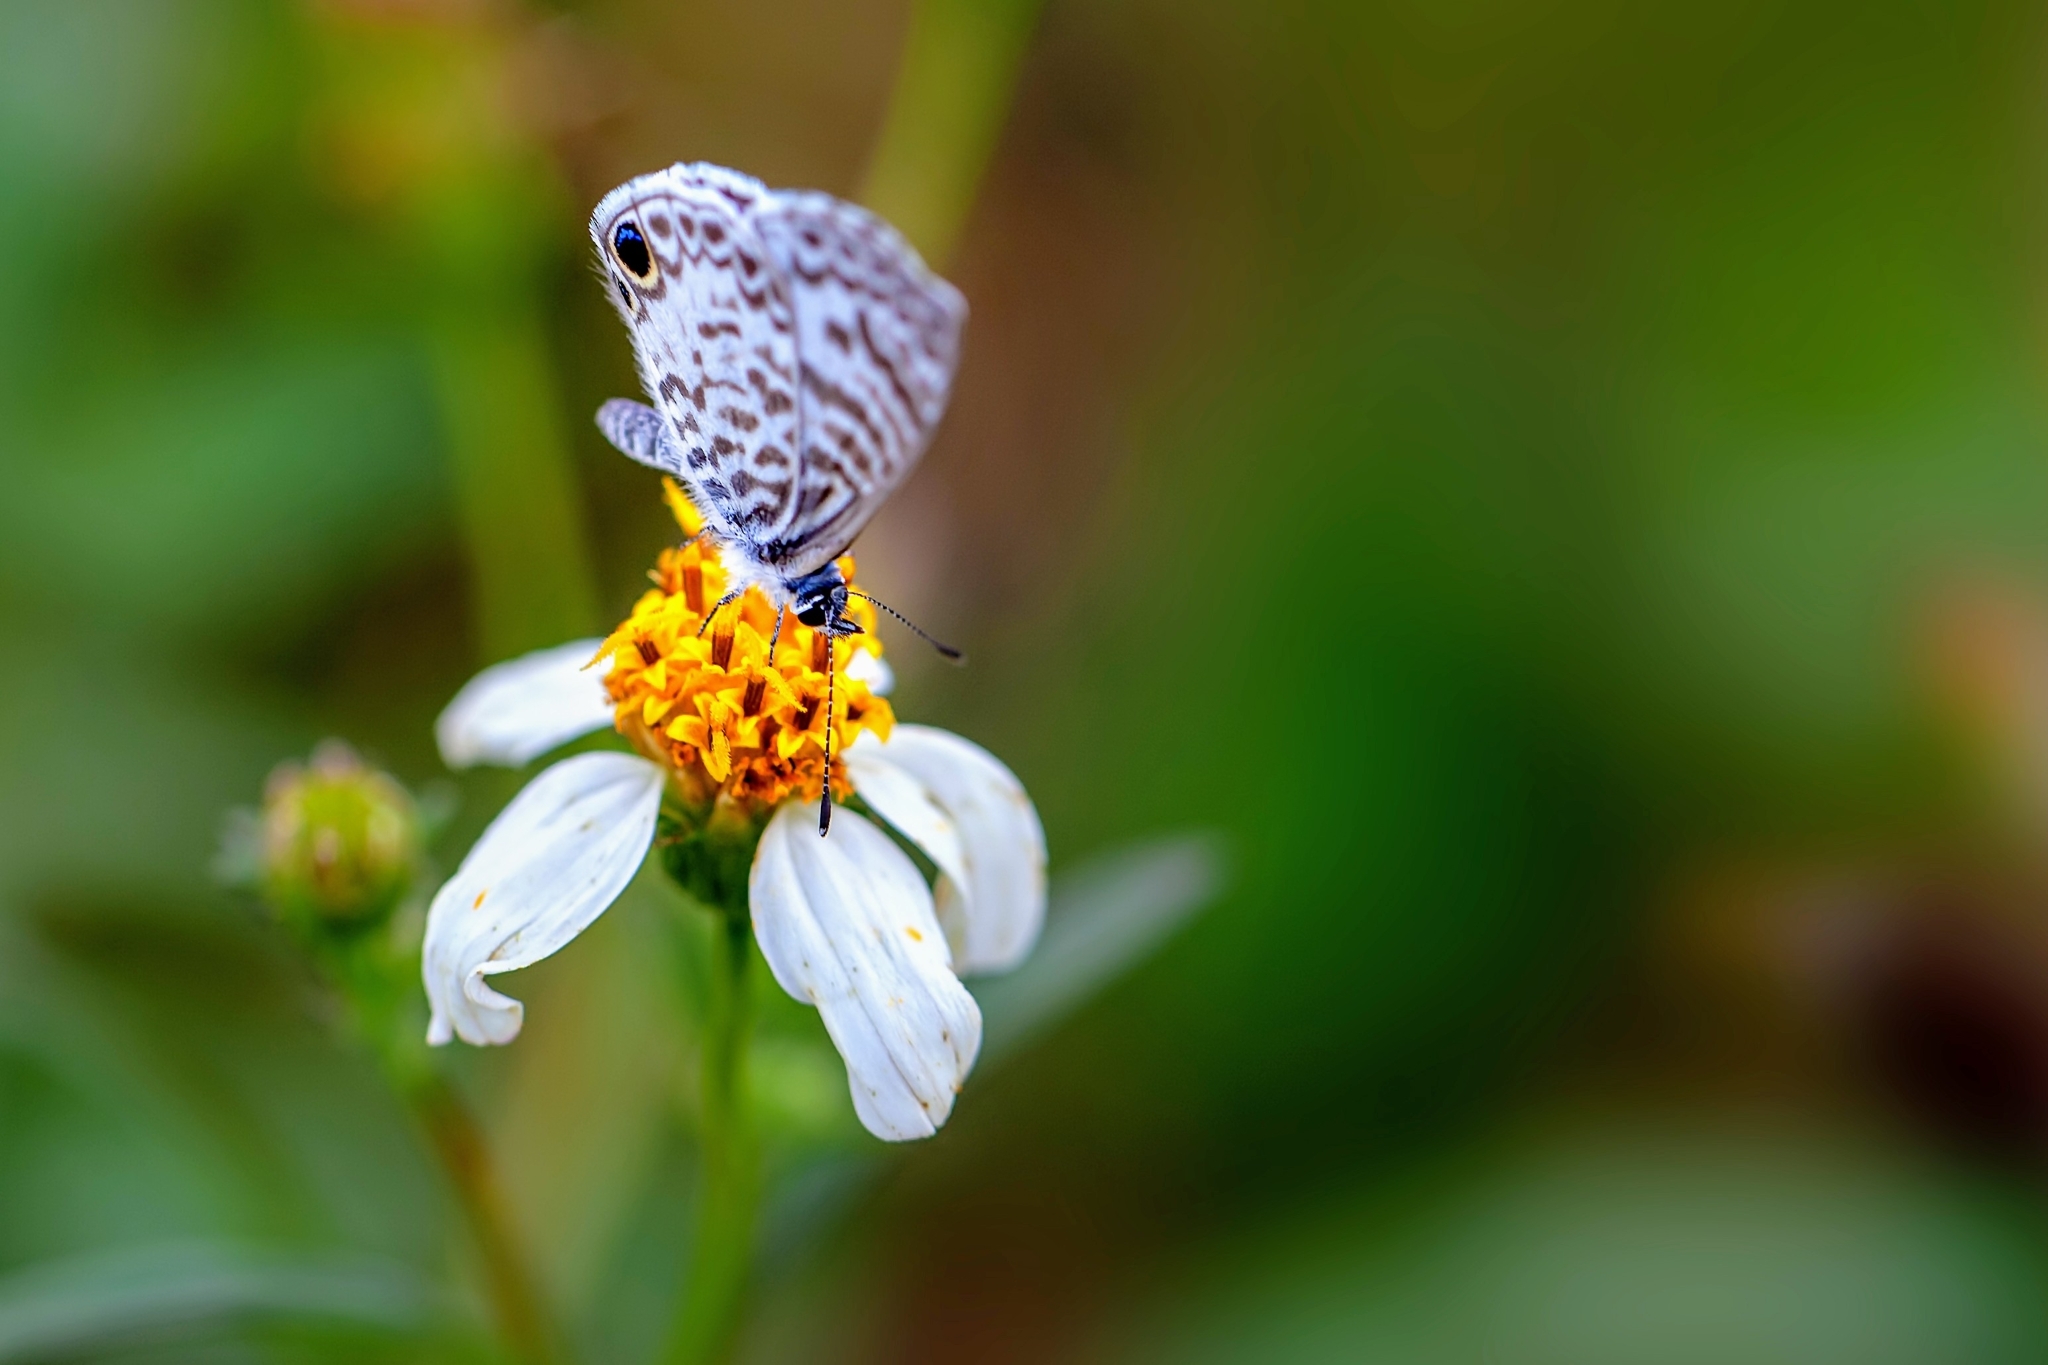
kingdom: Animalia
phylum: Arthropoda
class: Insecta
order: Lepidoptera
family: Lycaenidae
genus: Leptotes
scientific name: Leptotes cassius
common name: Cassius blue
